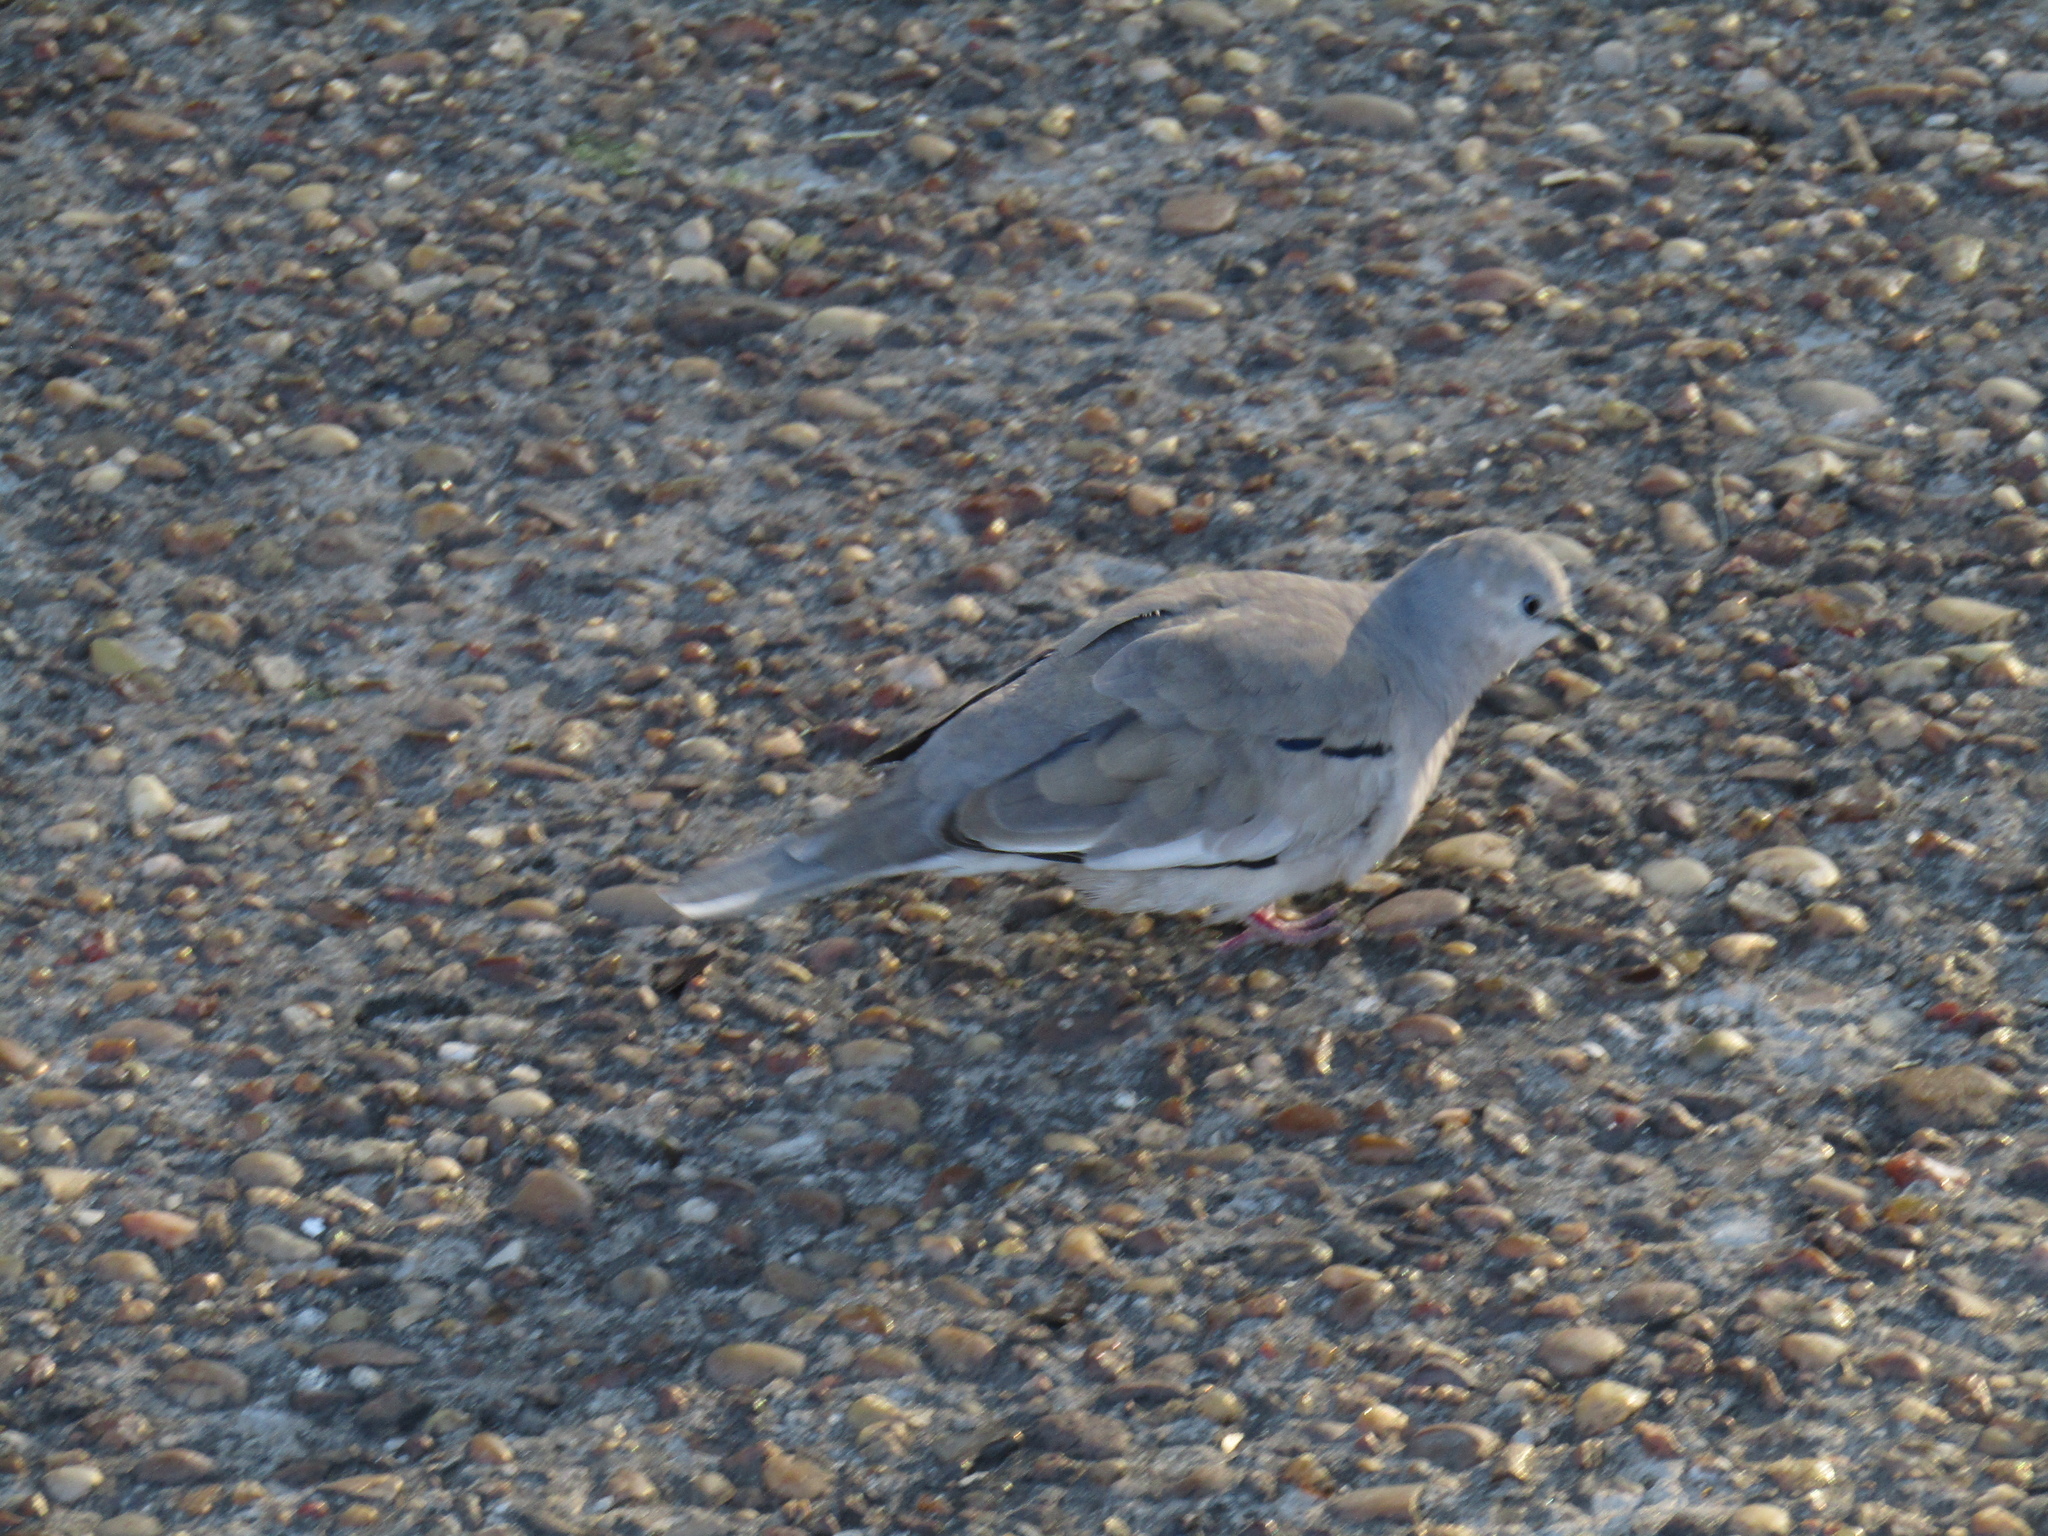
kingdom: Animalia
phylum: Chordata
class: Aves
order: Columbiformes
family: Columbidae
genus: Columbina
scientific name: Columbina picui
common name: Picui ground dove
